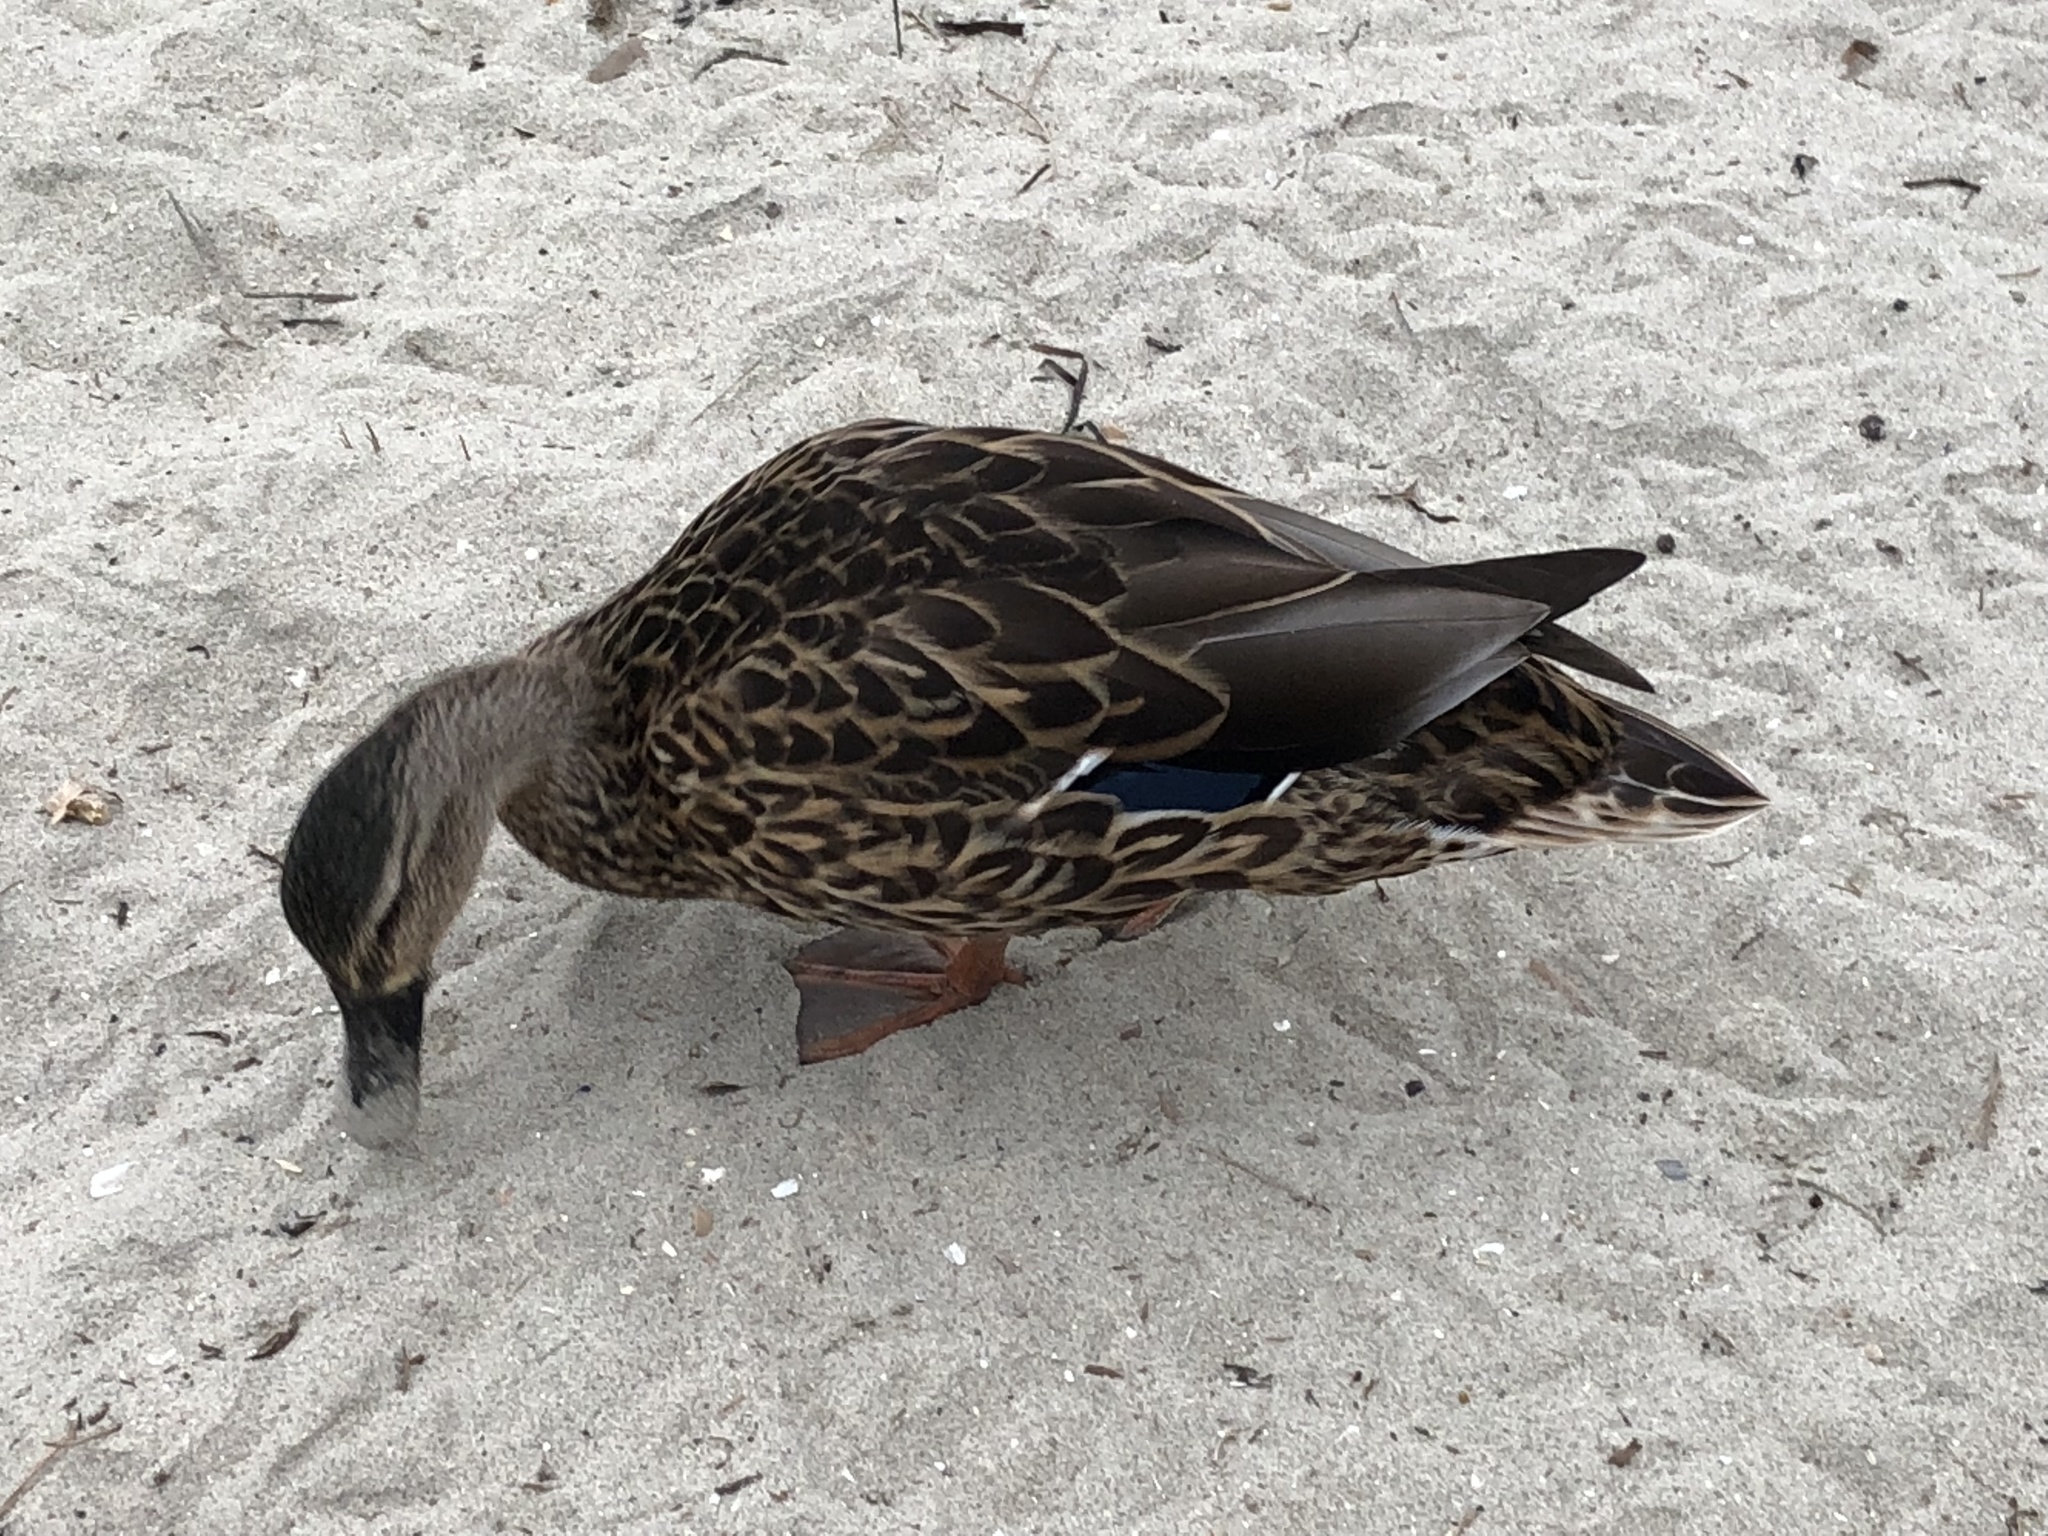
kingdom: Animalia
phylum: Chordata
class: Aves
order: Anseriformes
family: Anatidae
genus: Anas
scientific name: Anas platyrhynchos
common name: Mallard
